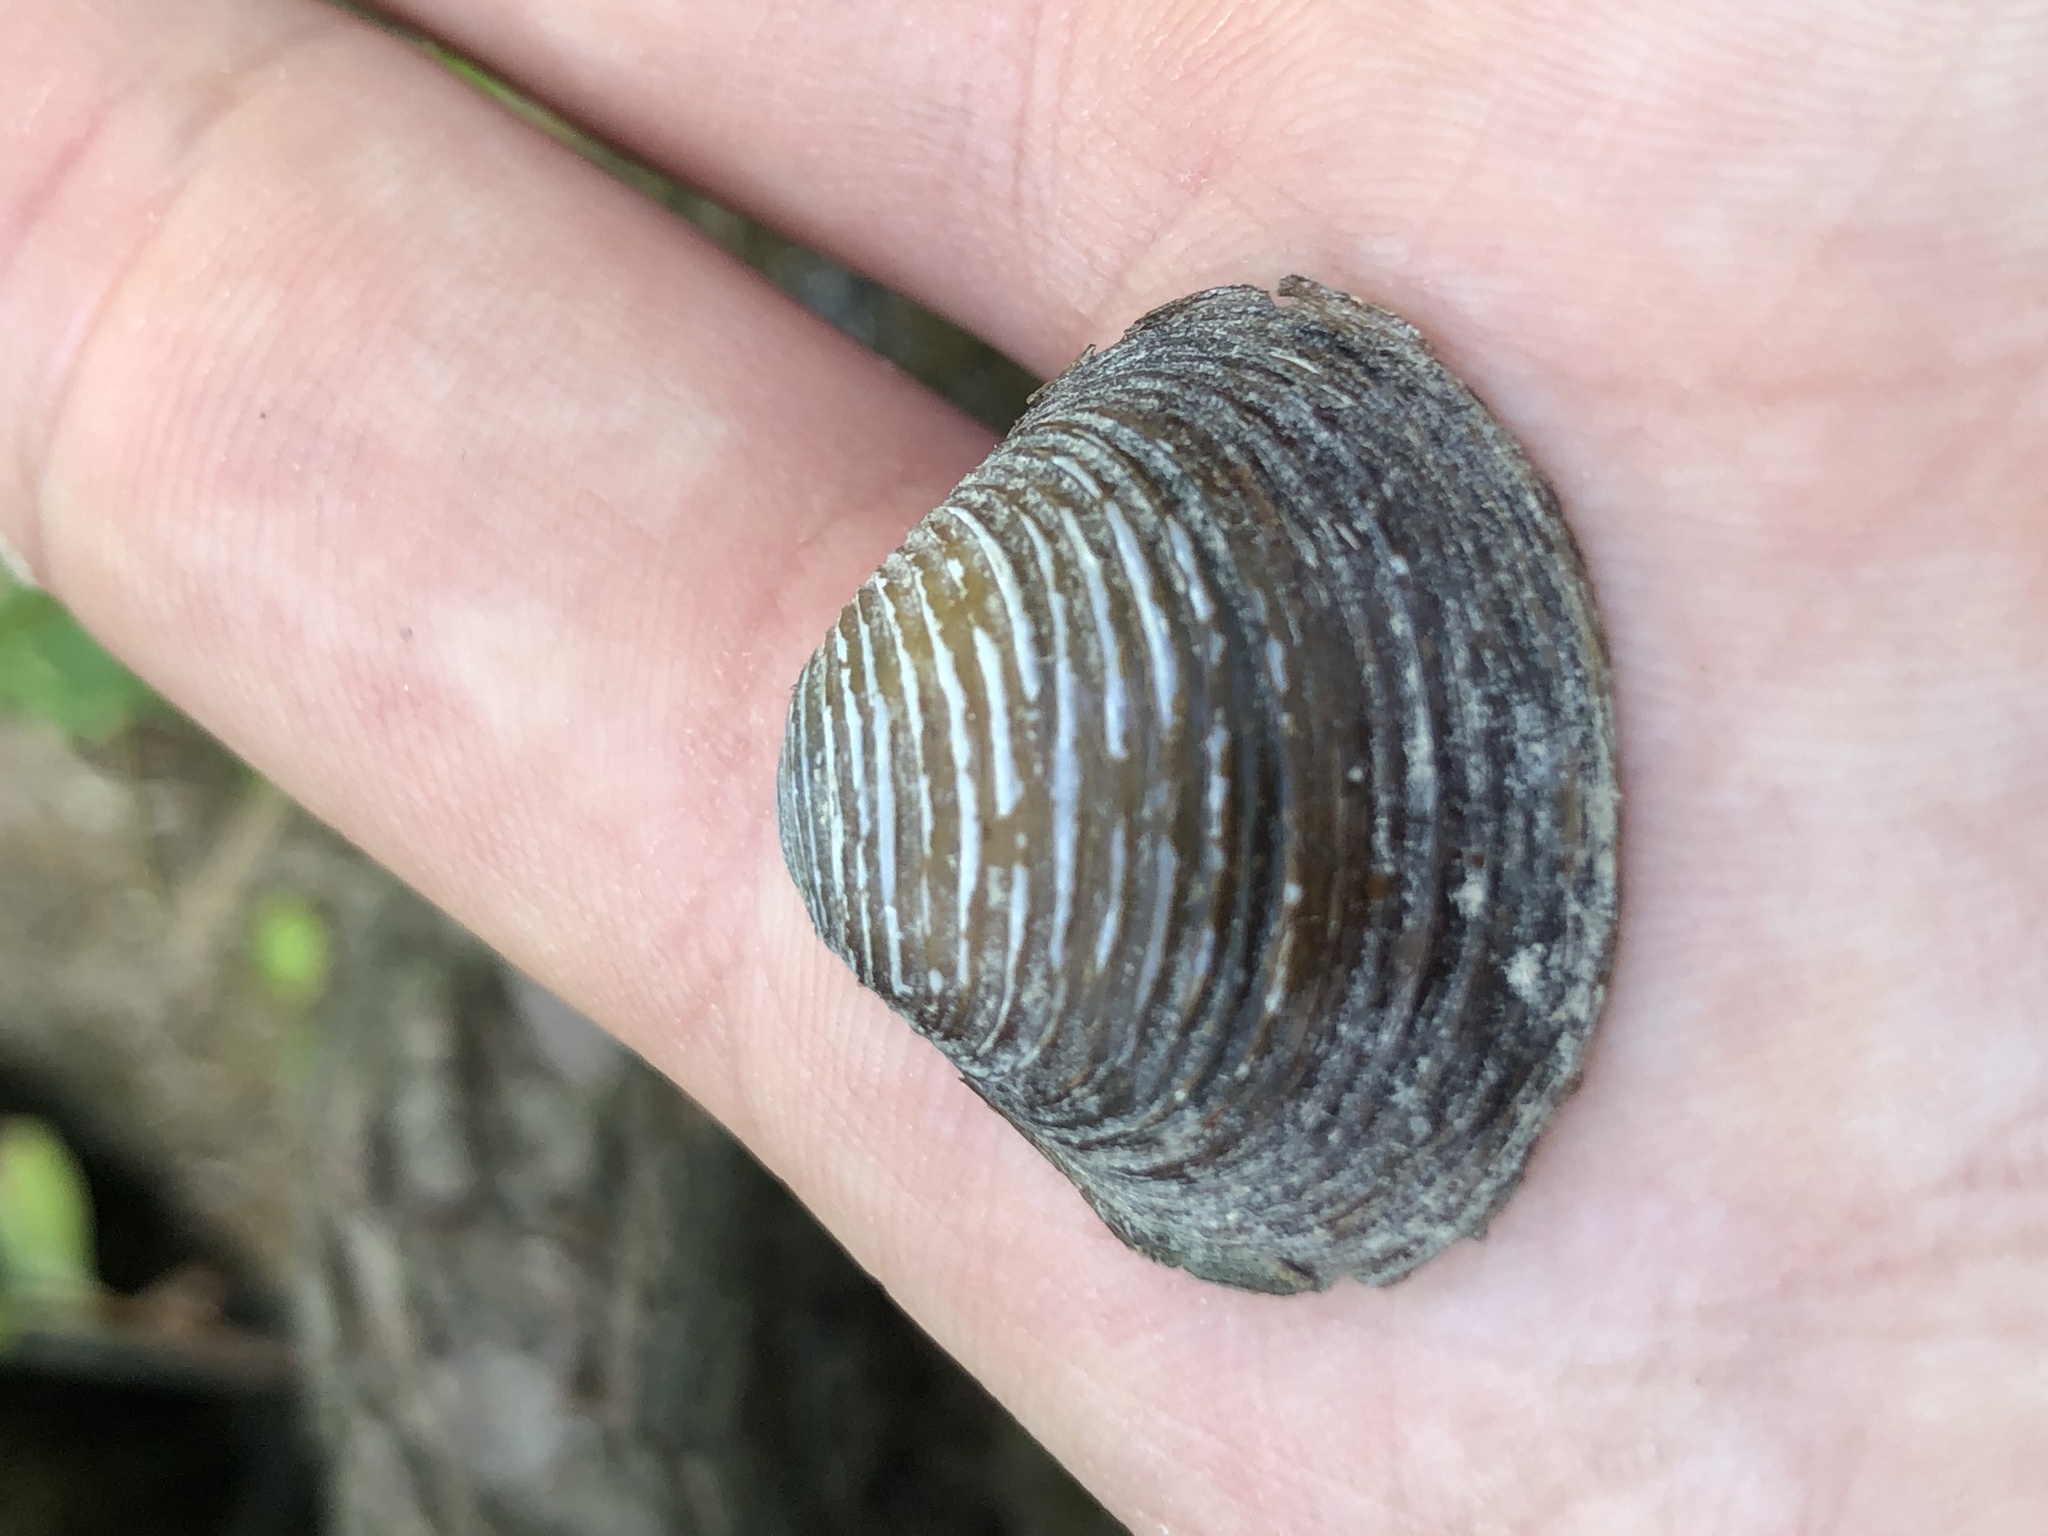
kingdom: Animalia
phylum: Mollusca
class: Bivalvia
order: Venerida
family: Cyrenidae
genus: Corbicula
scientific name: Corbicula fluminea
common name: Asian clam
